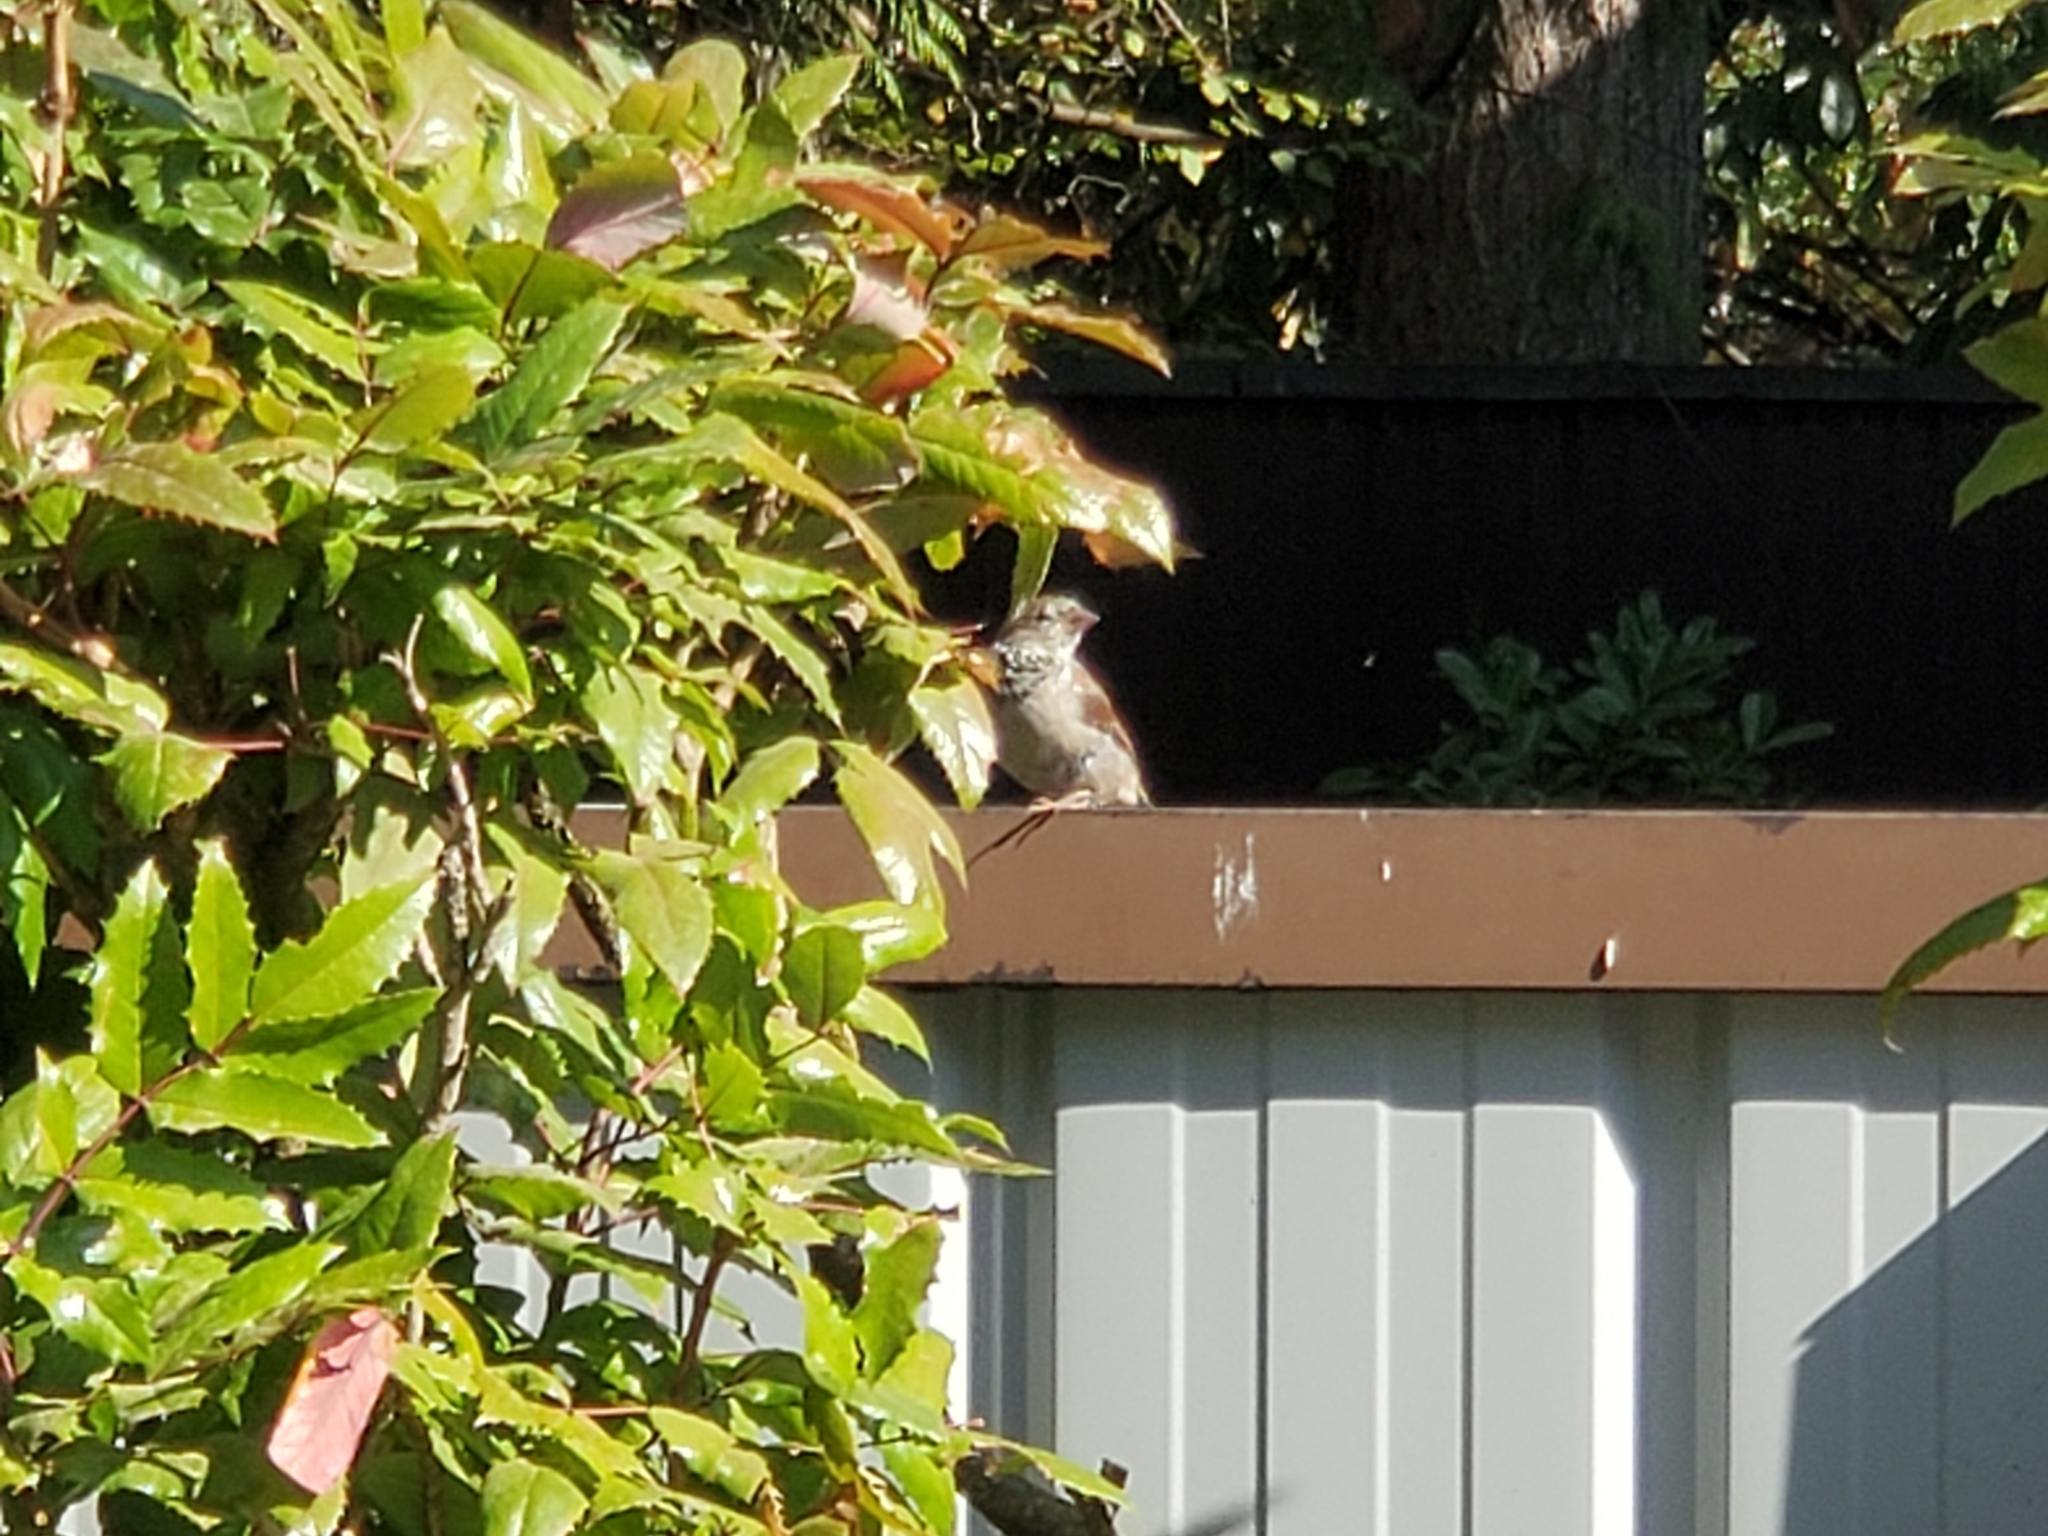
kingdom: Animalia
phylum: Chordata
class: Aves
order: Passeriformes
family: Passeridae
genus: Passer
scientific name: Passer domesticus
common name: House sparrow
